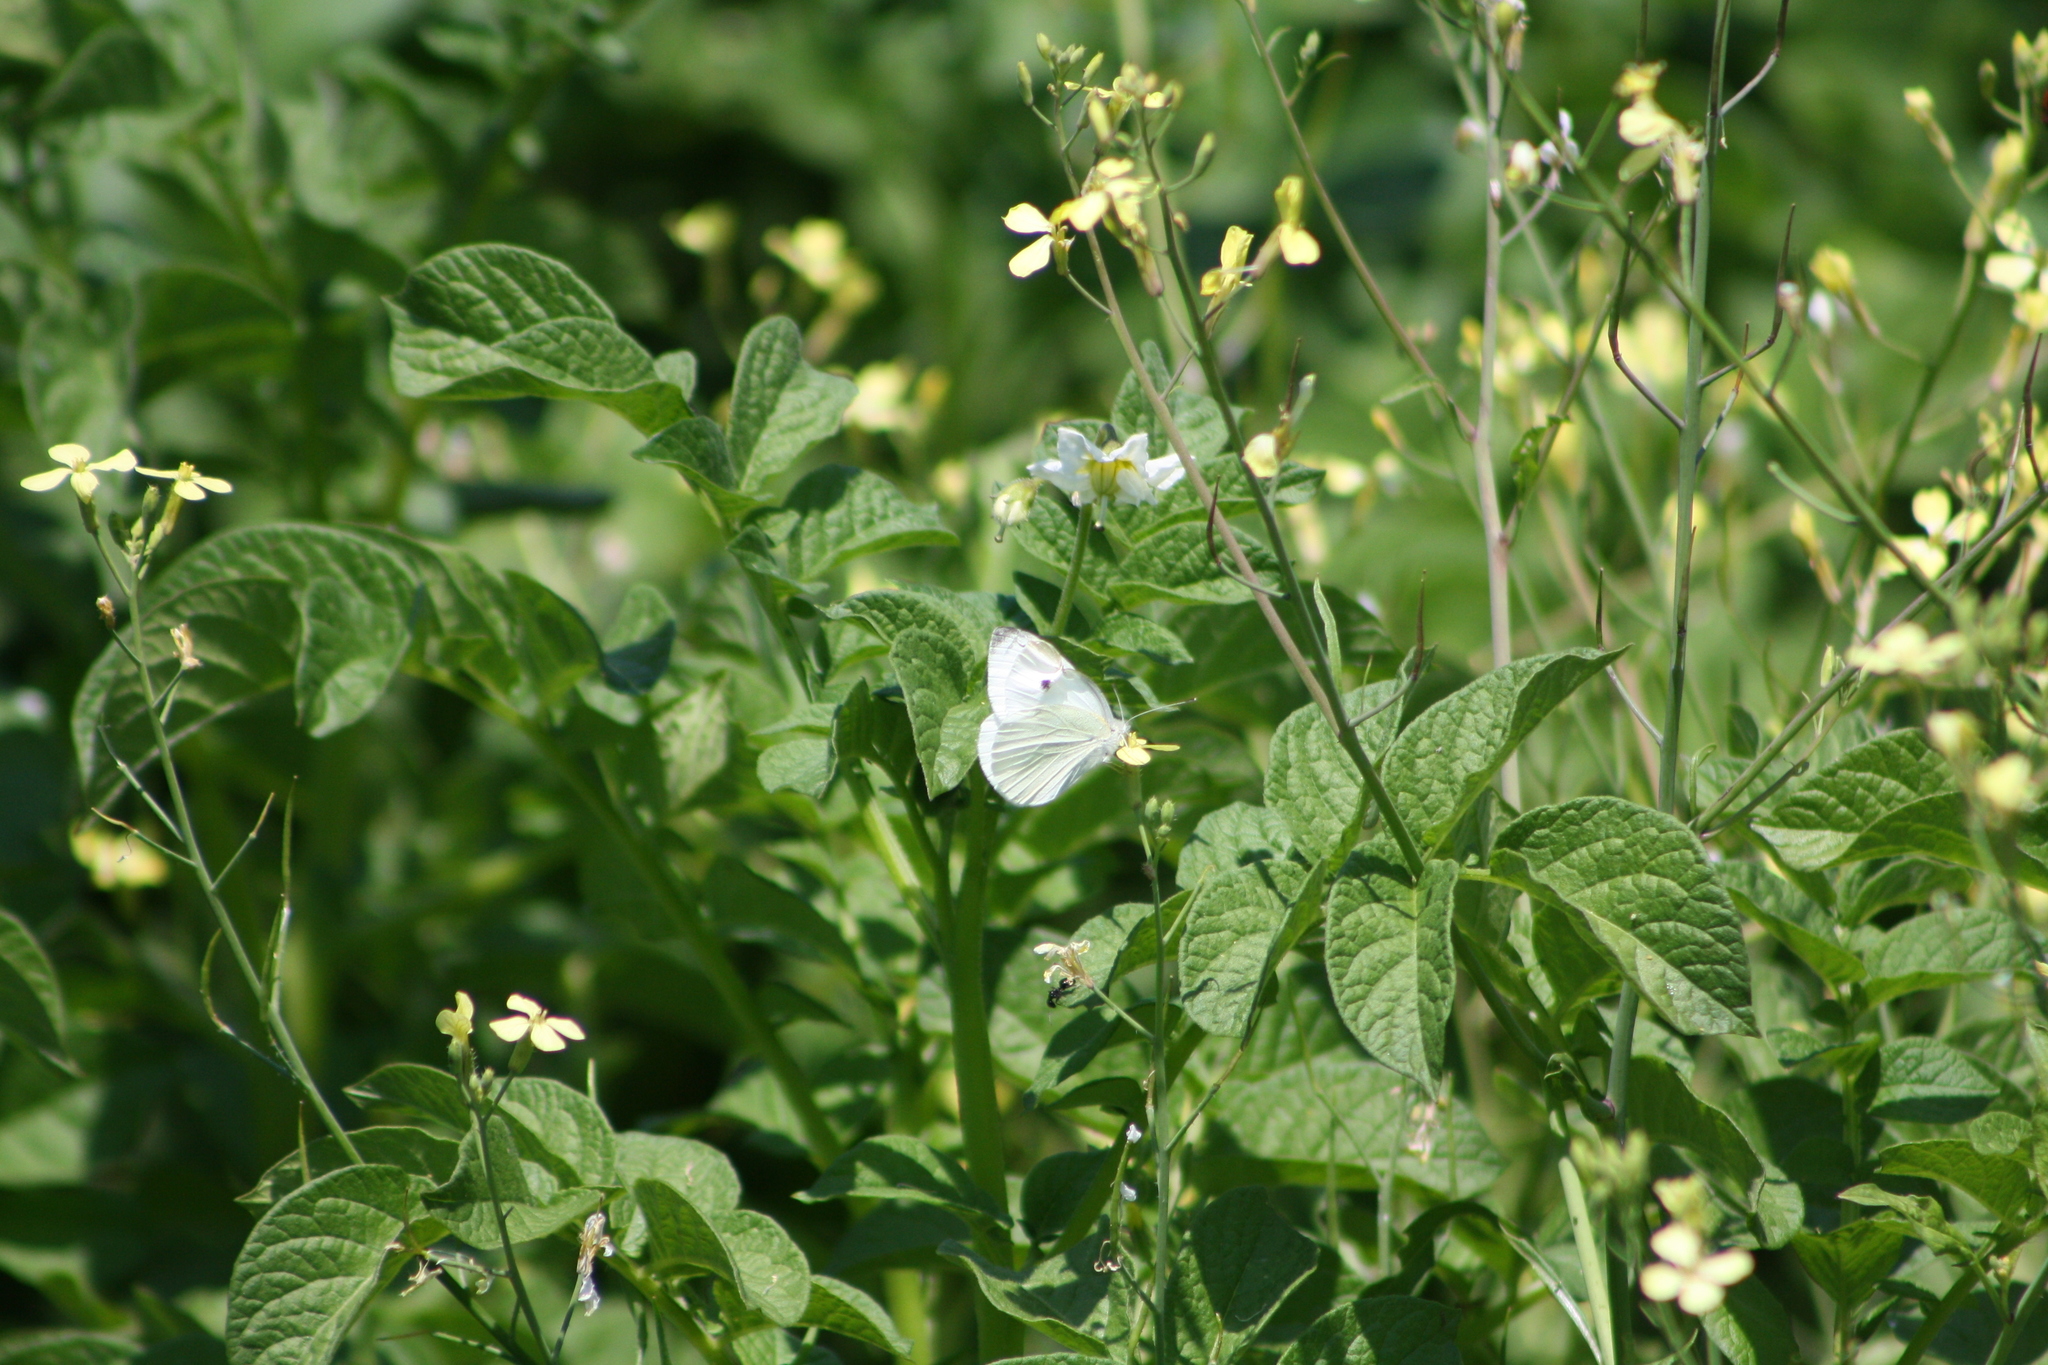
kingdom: Animalia
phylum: Arthropoda
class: Insecta
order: Lepidoptera
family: Pieridae
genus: Pieris
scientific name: Pieris rapae
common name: Small white
